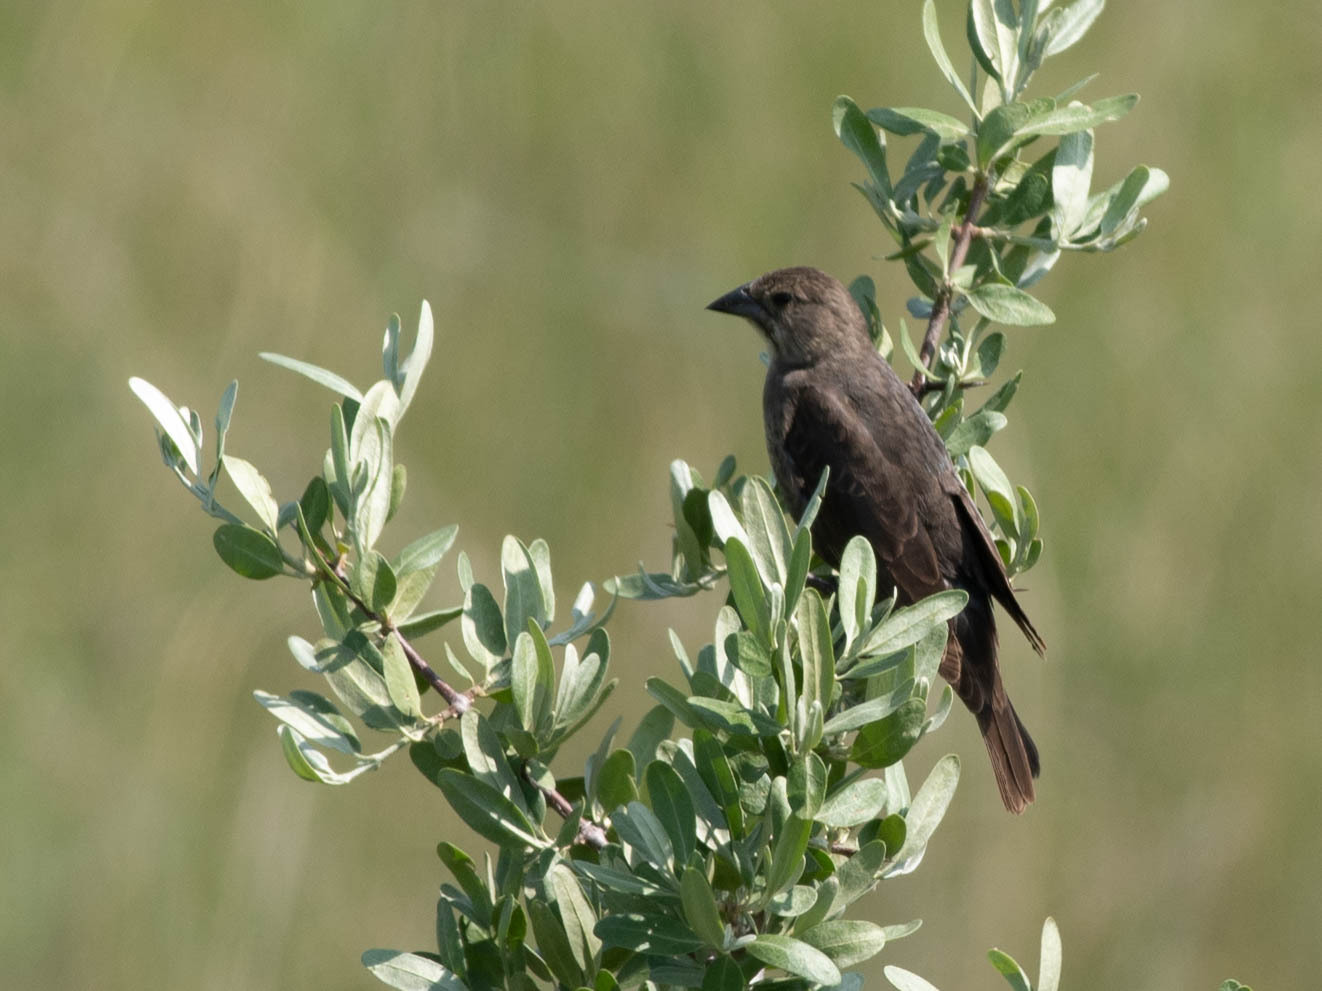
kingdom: Animalia
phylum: Chordata
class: Aves
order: Passeriformes
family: Icteridae
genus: Molothrus
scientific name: Molothrus ater
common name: Brown-headed cowbird
